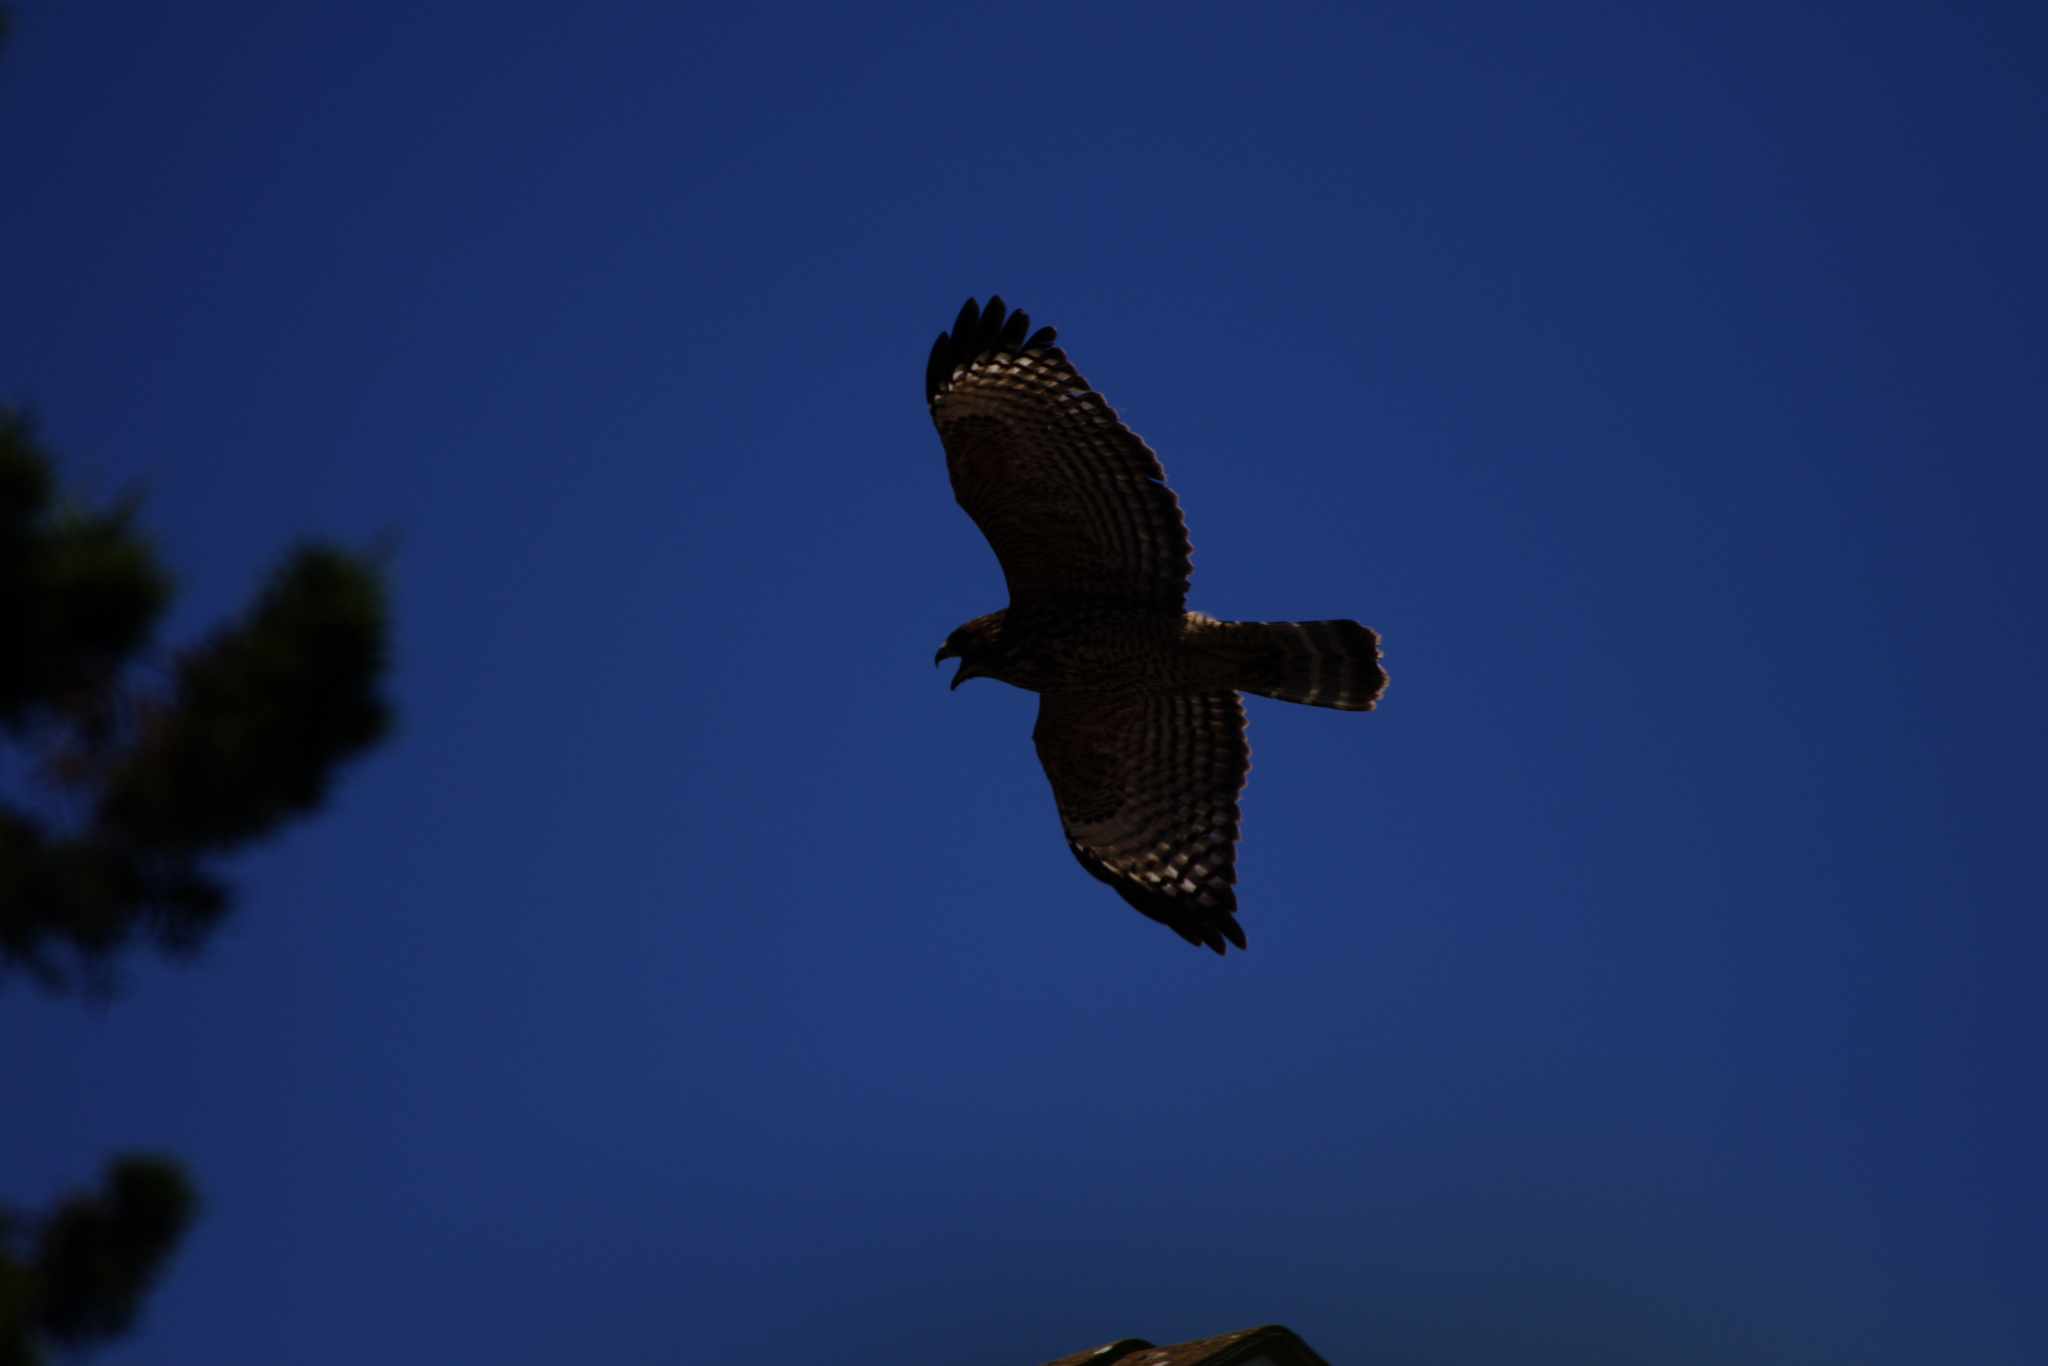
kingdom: Animalia
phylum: Chordata
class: Aves
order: Accipitriformes
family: Accipitridae
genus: Buteo
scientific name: Buteo lineatus
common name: Red-shouldered hawk
